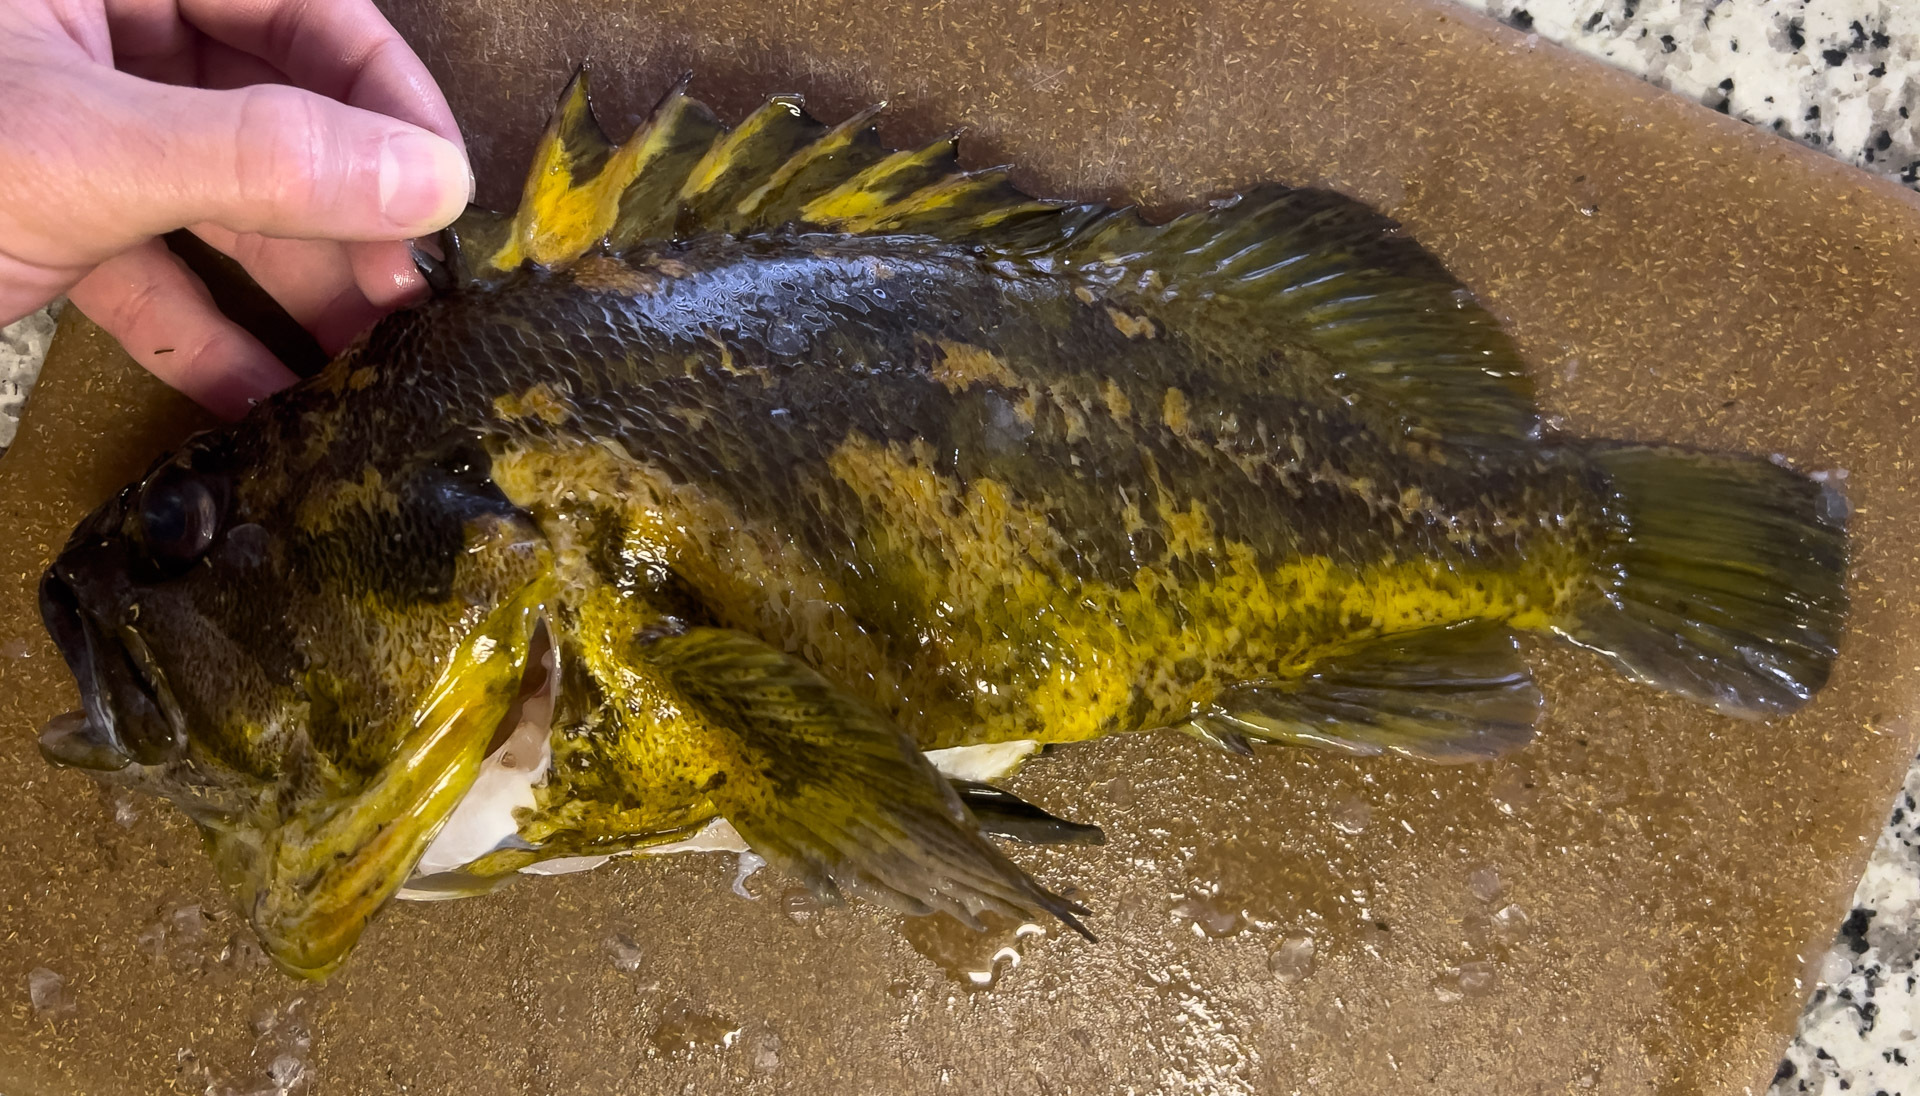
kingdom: Animalia
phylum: Chordata
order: Scorpaeniformes
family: Sebastidae
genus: Sebastes
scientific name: Sebastes chrysomelas
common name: Black-and-yellow rockfish
